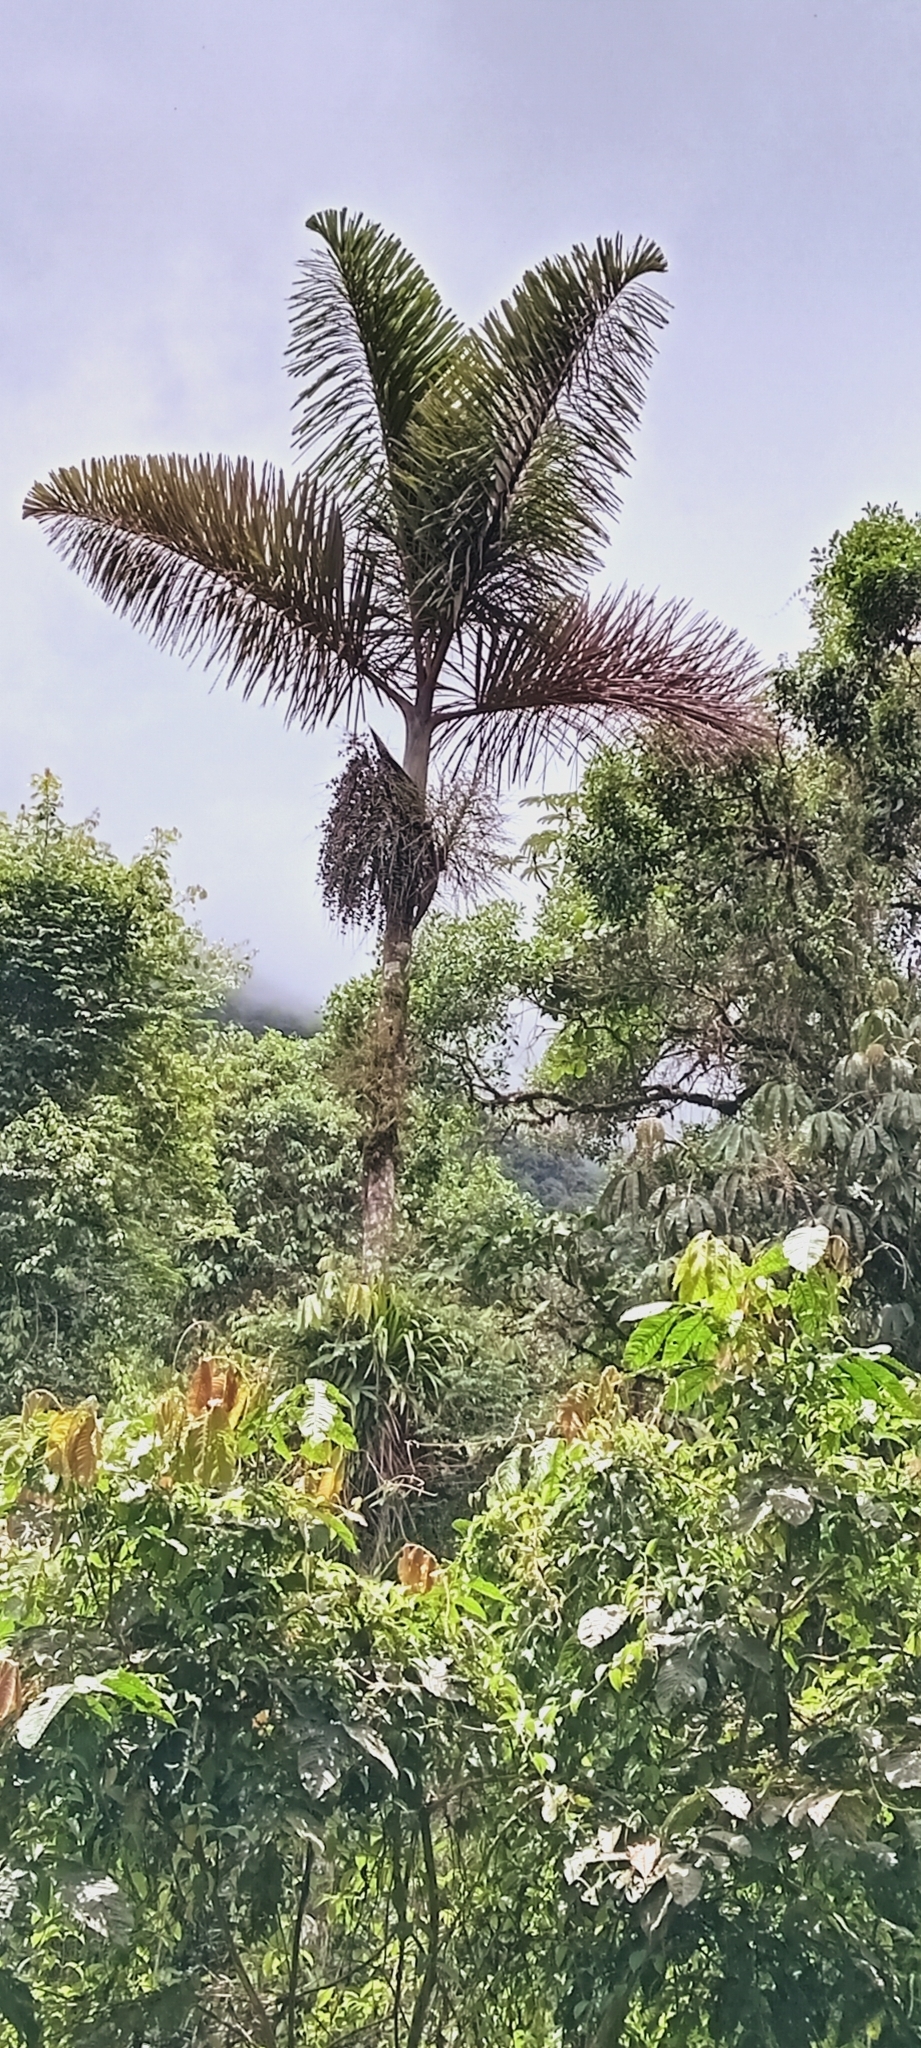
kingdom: Plantae
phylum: Tracheophyta
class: Liliopsida
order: Arecales
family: Arecaceae
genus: Dictyocaryum
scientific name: Dictyocaryum lamarckianum
